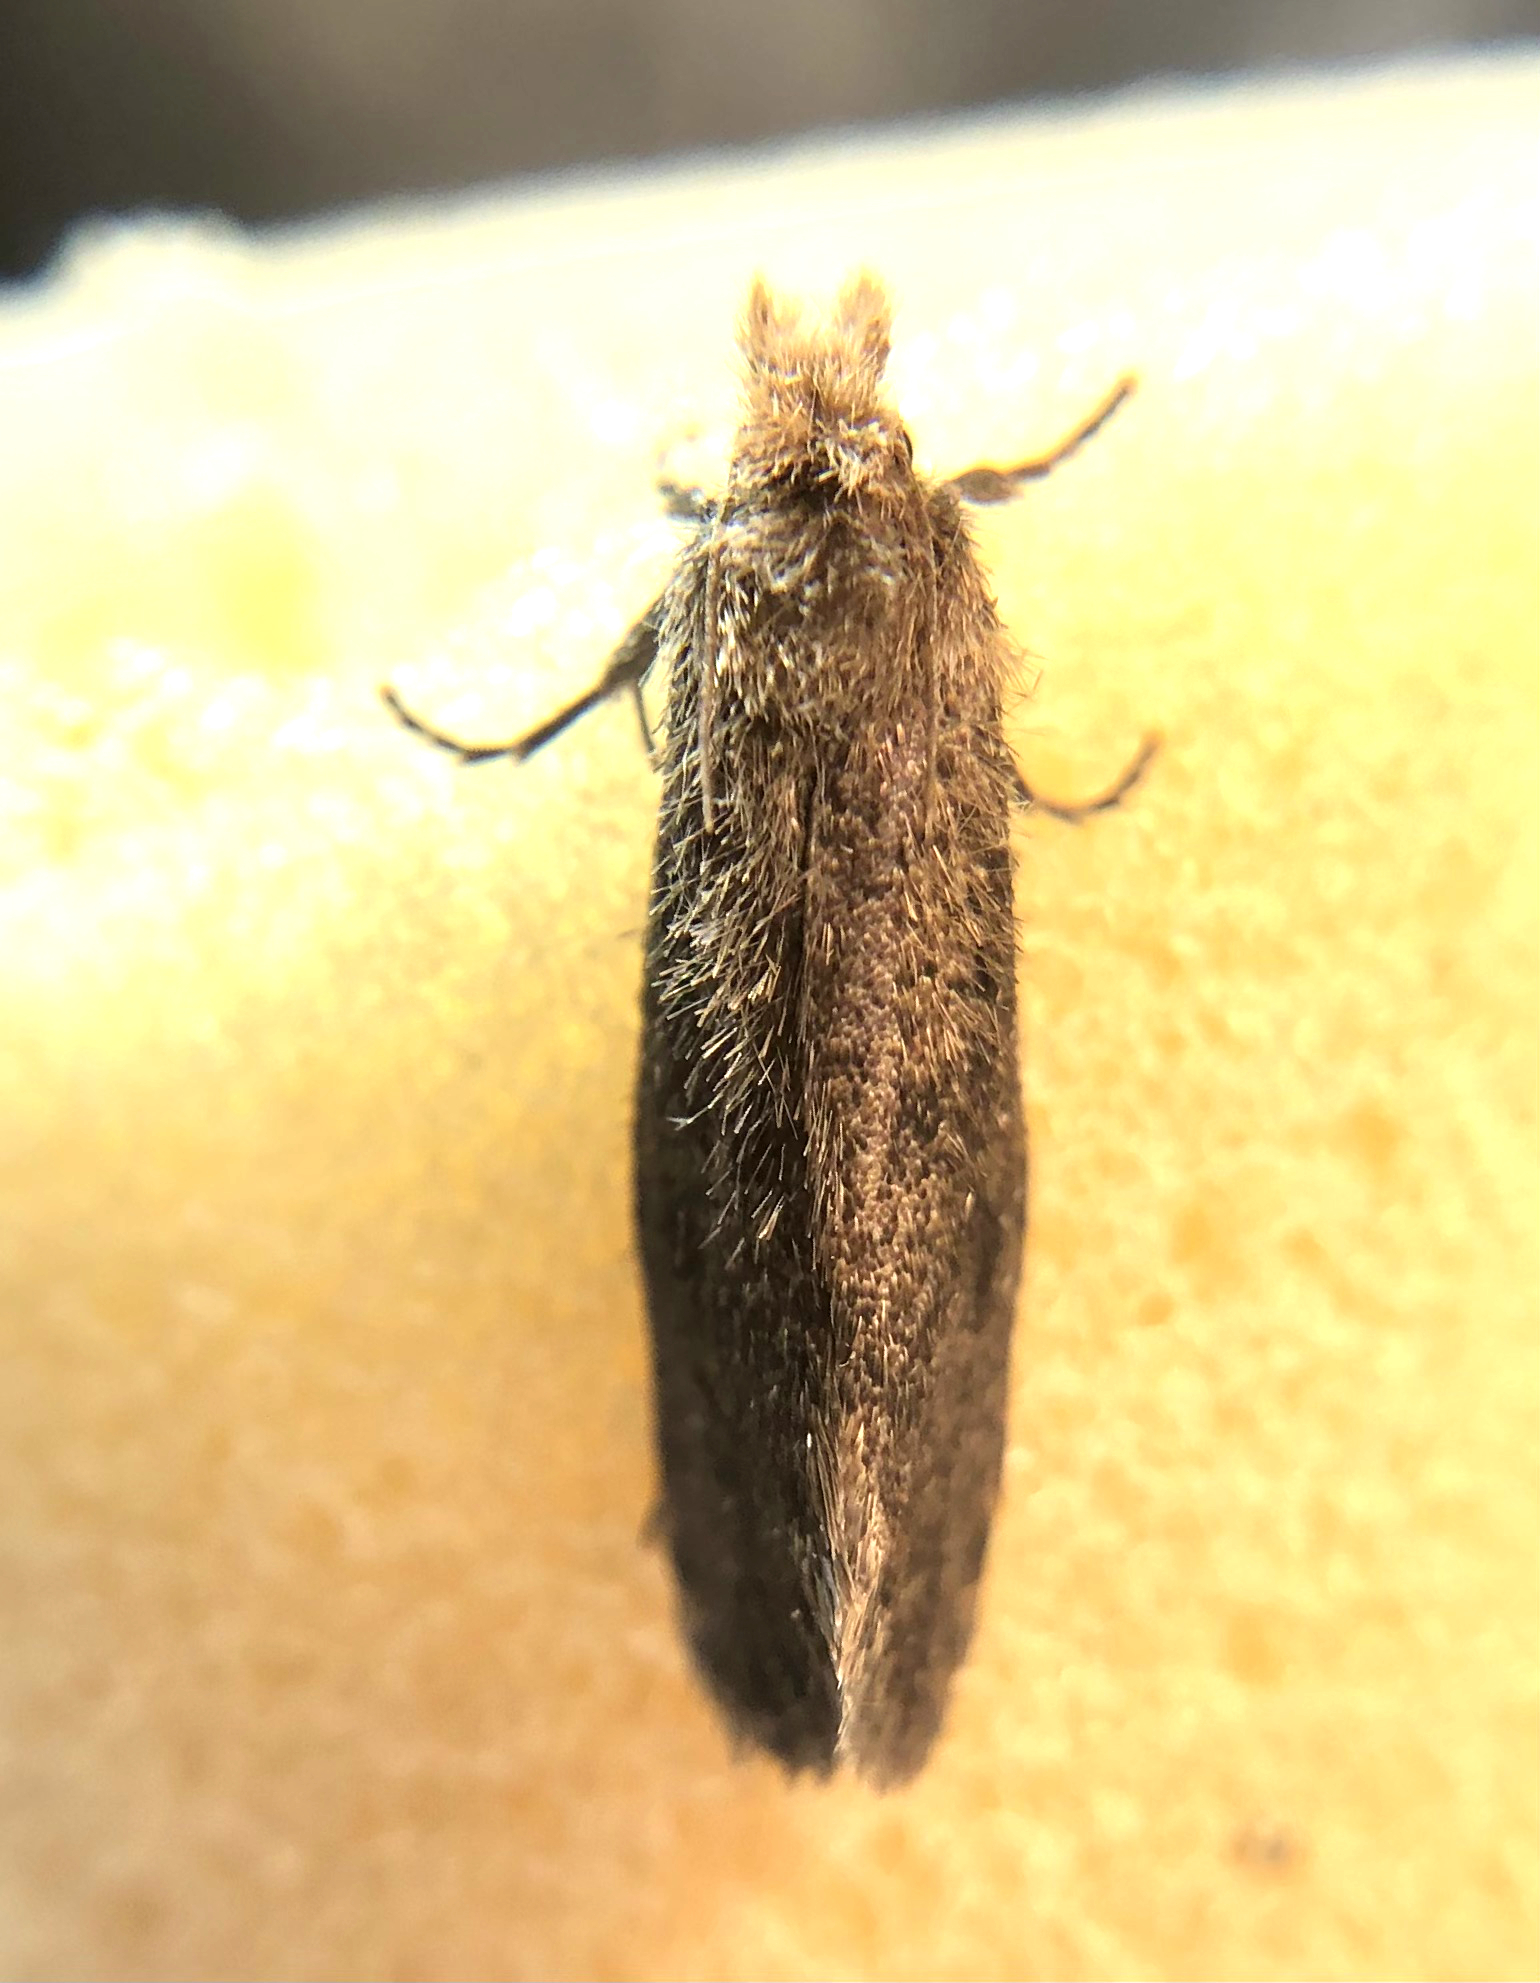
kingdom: Animalia
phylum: Arthropoda
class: Insecta
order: Lepidoptera
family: Tineidae
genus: Acrolophus
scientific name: Acrolophus propinqua
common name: Walsingham's grass tubeworm moth
